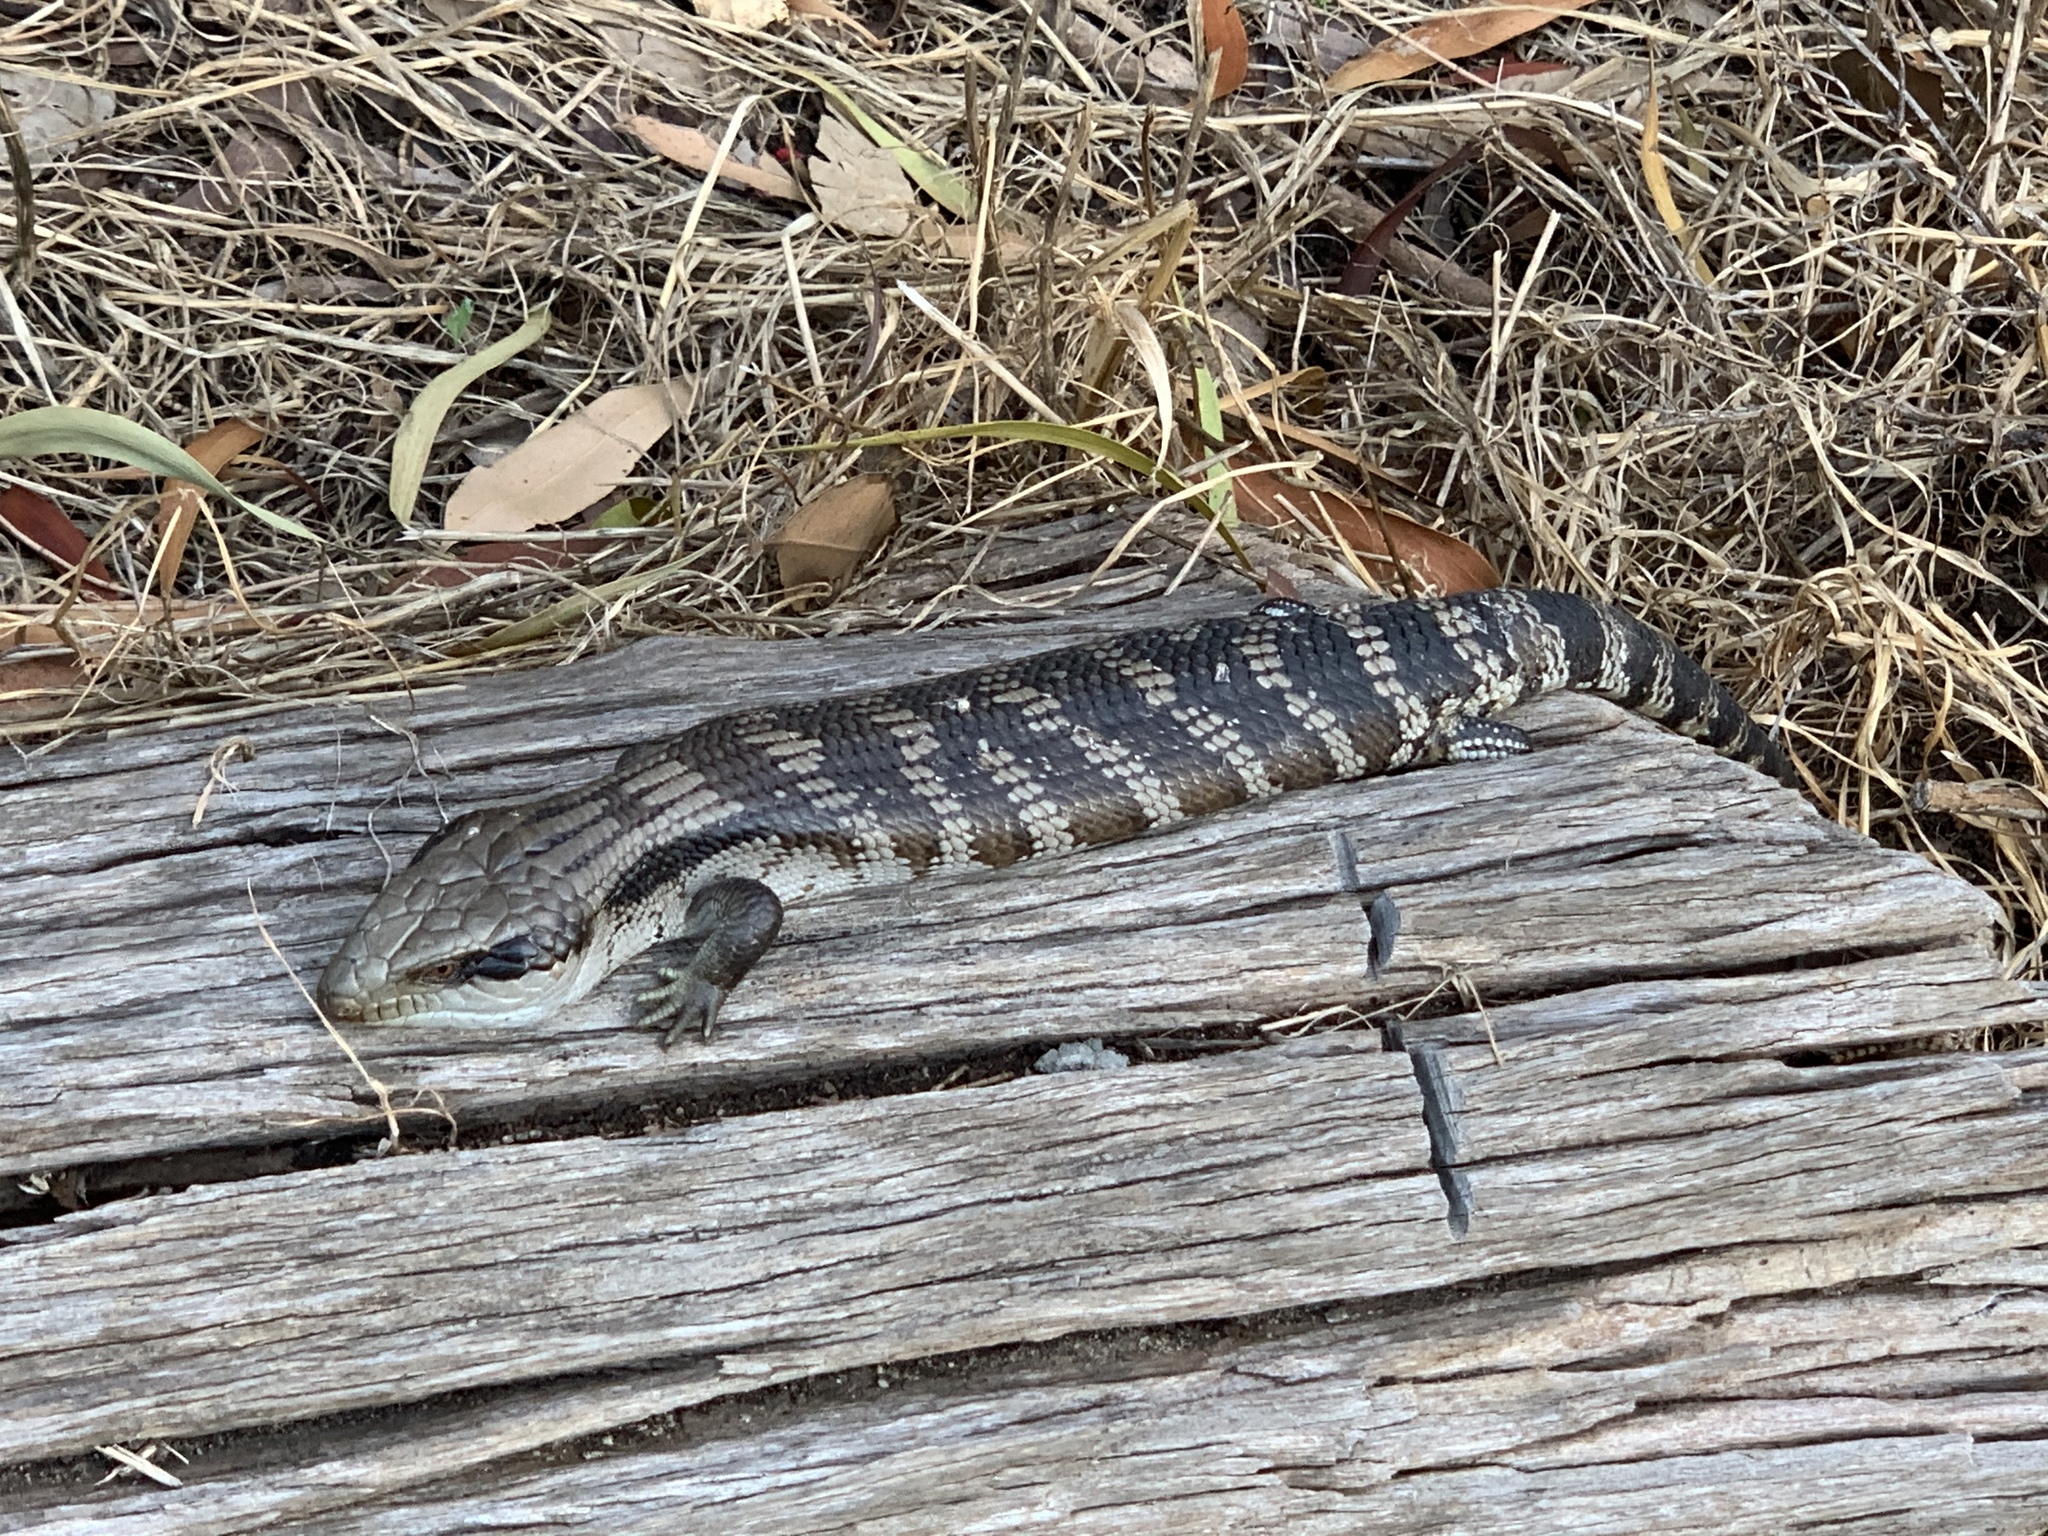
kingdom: Animalia
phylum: Chordata
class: Squamata
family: Scincidae
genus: Tiliqua
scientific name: Tiliqua scincoides
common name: Common bluetongue
